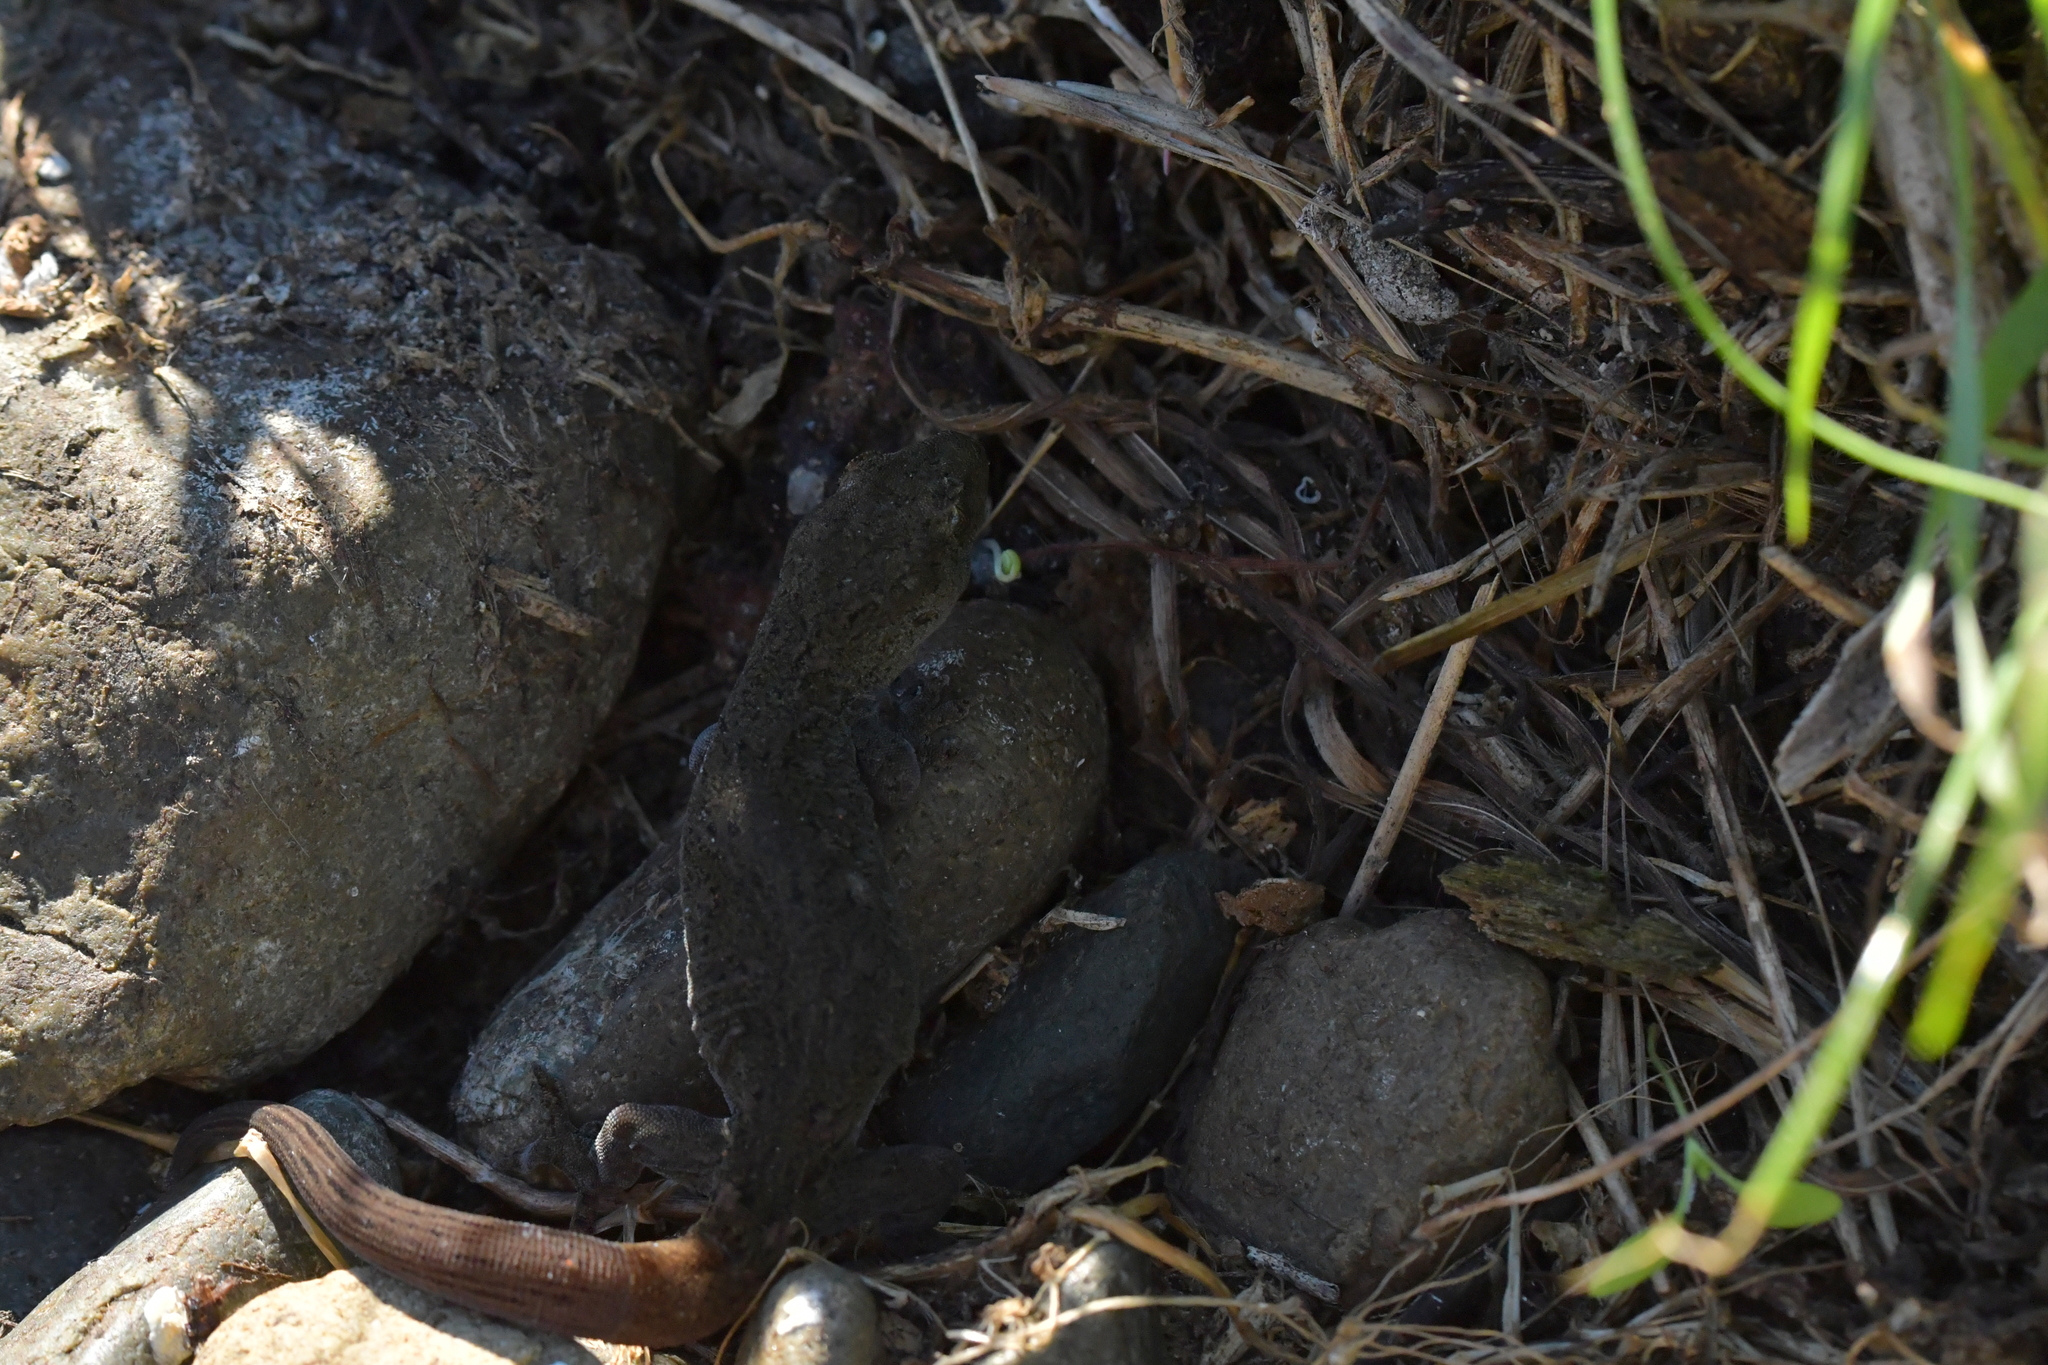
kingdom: Animalia
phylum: Chordata
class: Squamata
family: Diplodactylidae
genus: Woodworthia
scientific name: Woodworthia maculata
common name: Raukawa gecko
